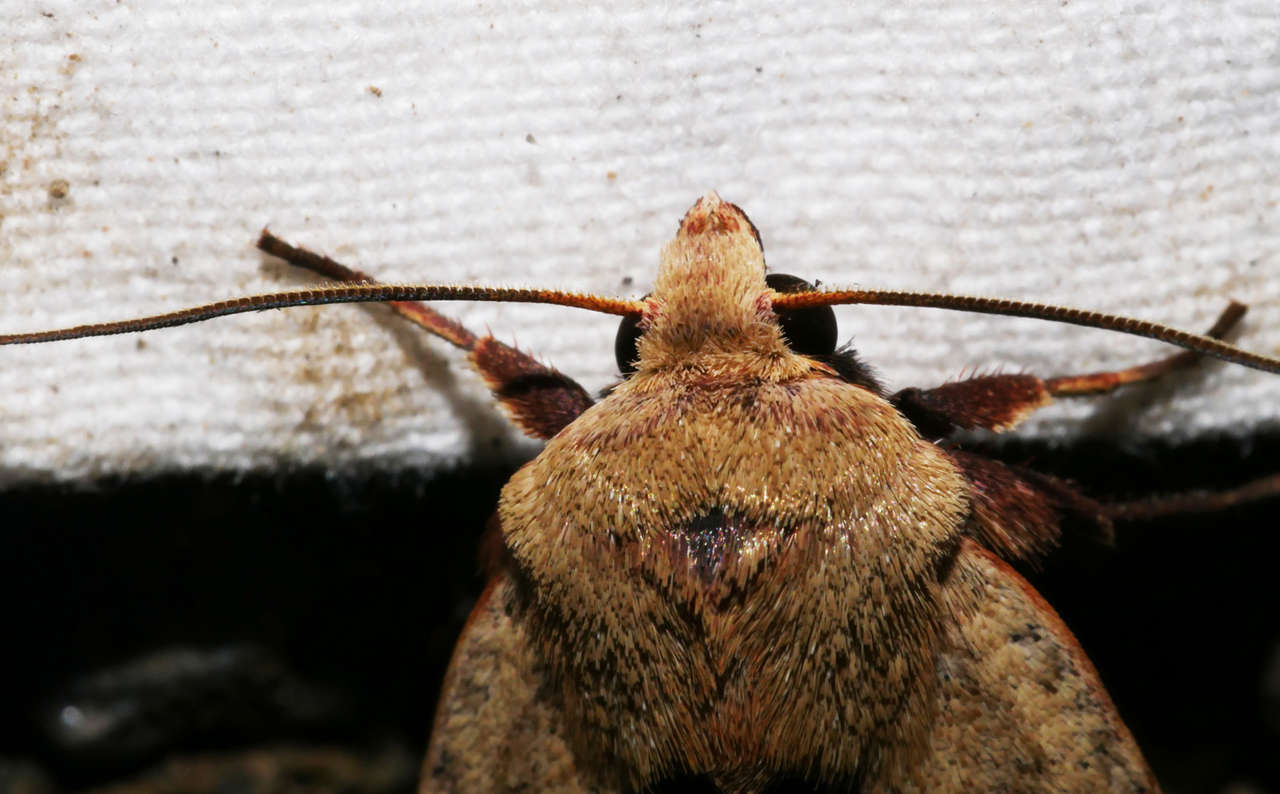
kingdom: Animalia
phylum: Arthropoda
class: Insecta
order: Lepidoptera
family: Noctuidae
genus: Diarsia
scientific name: Diarsia intermixta
